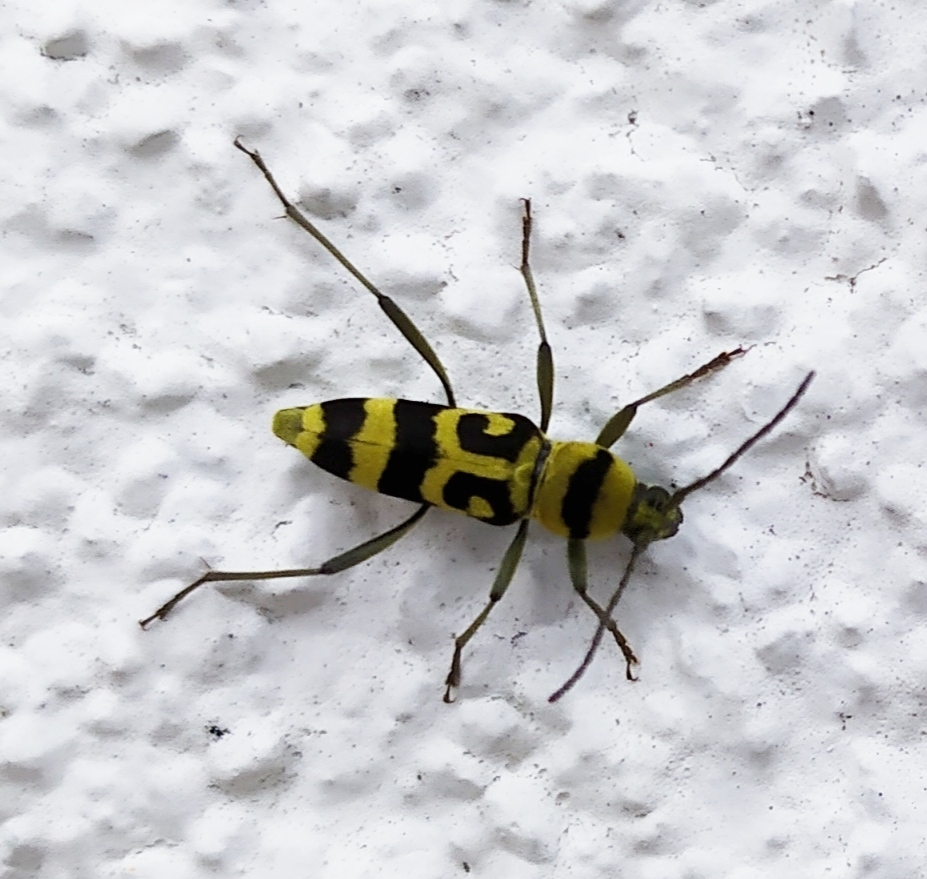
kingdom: Animalia
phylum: Arthropoda
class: Insecta
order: Coleoptera
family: Cerambycidae
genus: Chlorophorus
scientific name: Chlorophorus varius
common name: Grape wood borer
